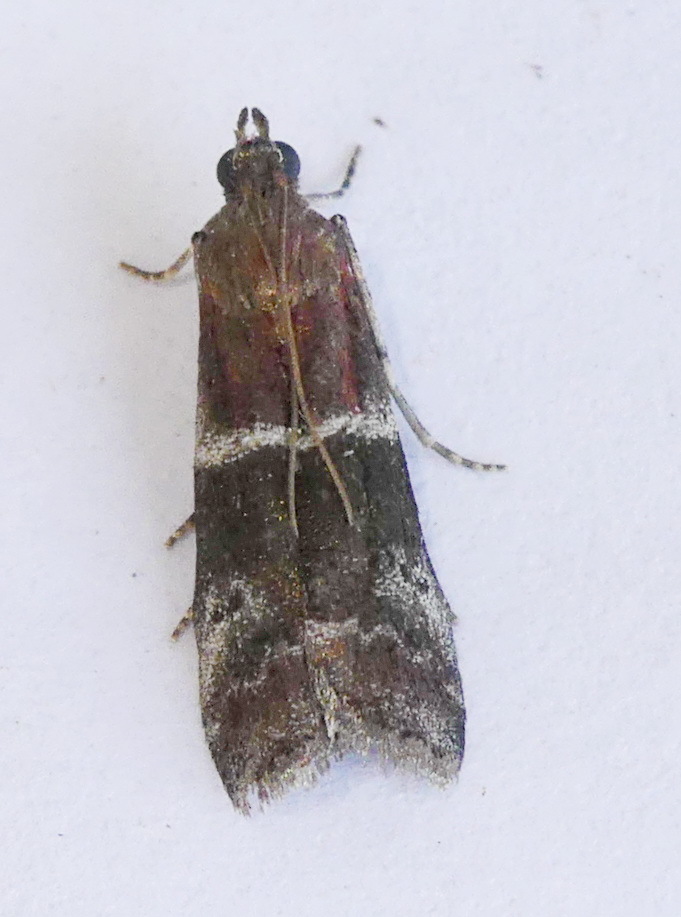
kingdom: Animalia
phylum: Arthropoda
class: Insecta
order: Lepidoptera
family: Pyralidae
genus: Moodna
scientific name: Moodna ostrinella
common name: Darker moodna moth
